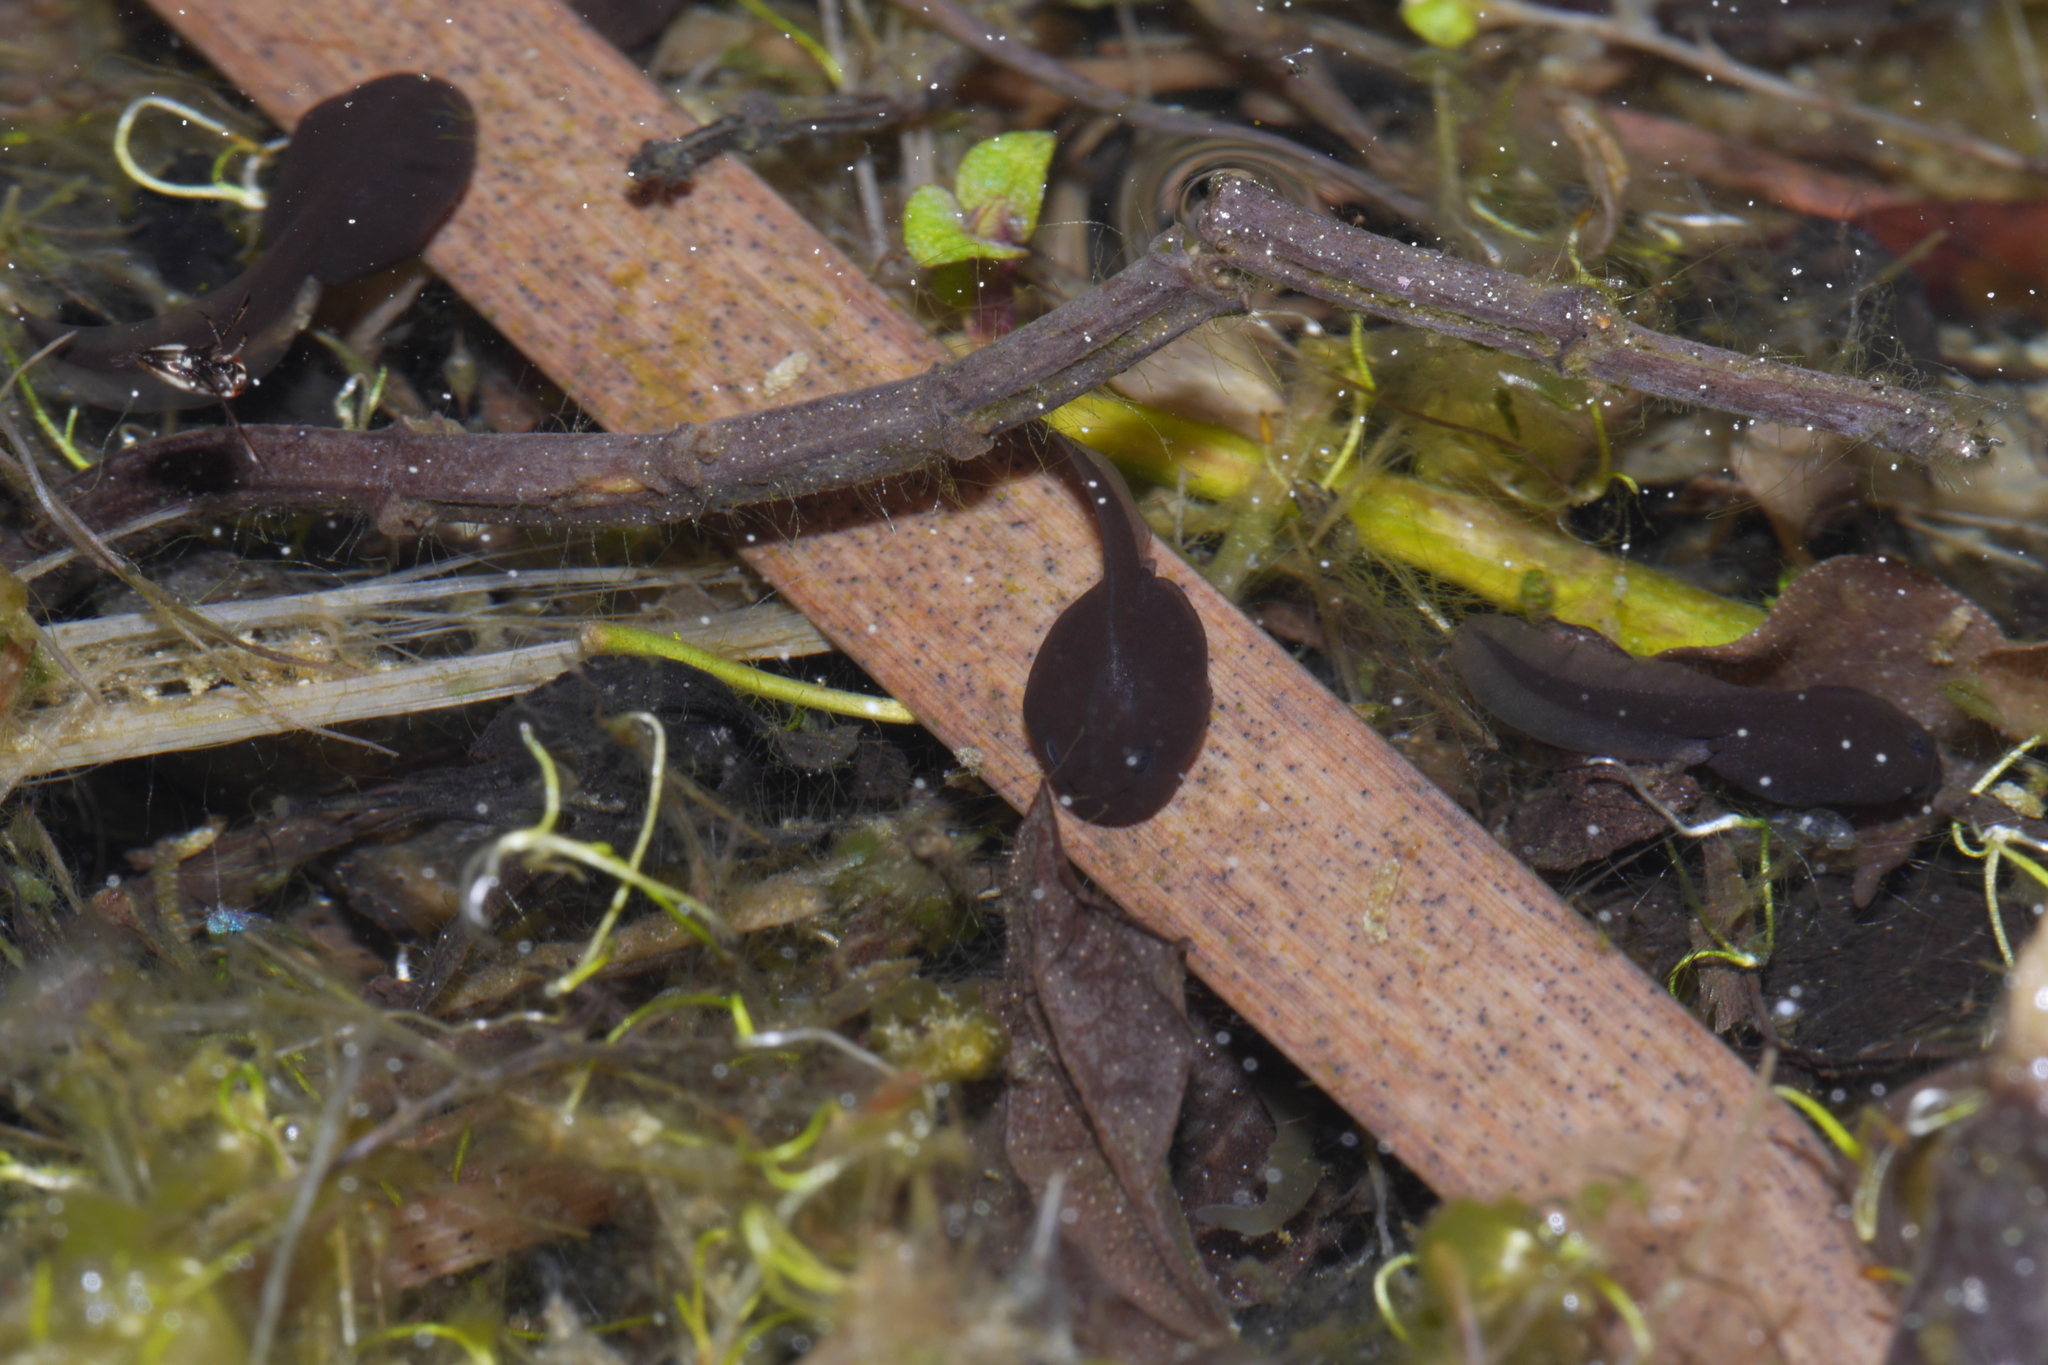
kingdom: Animalia
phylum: Chordata
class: Amphibia
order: Anura
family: Bufonidae
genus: Bufo
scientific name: Bufo bufo
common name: Common toad
